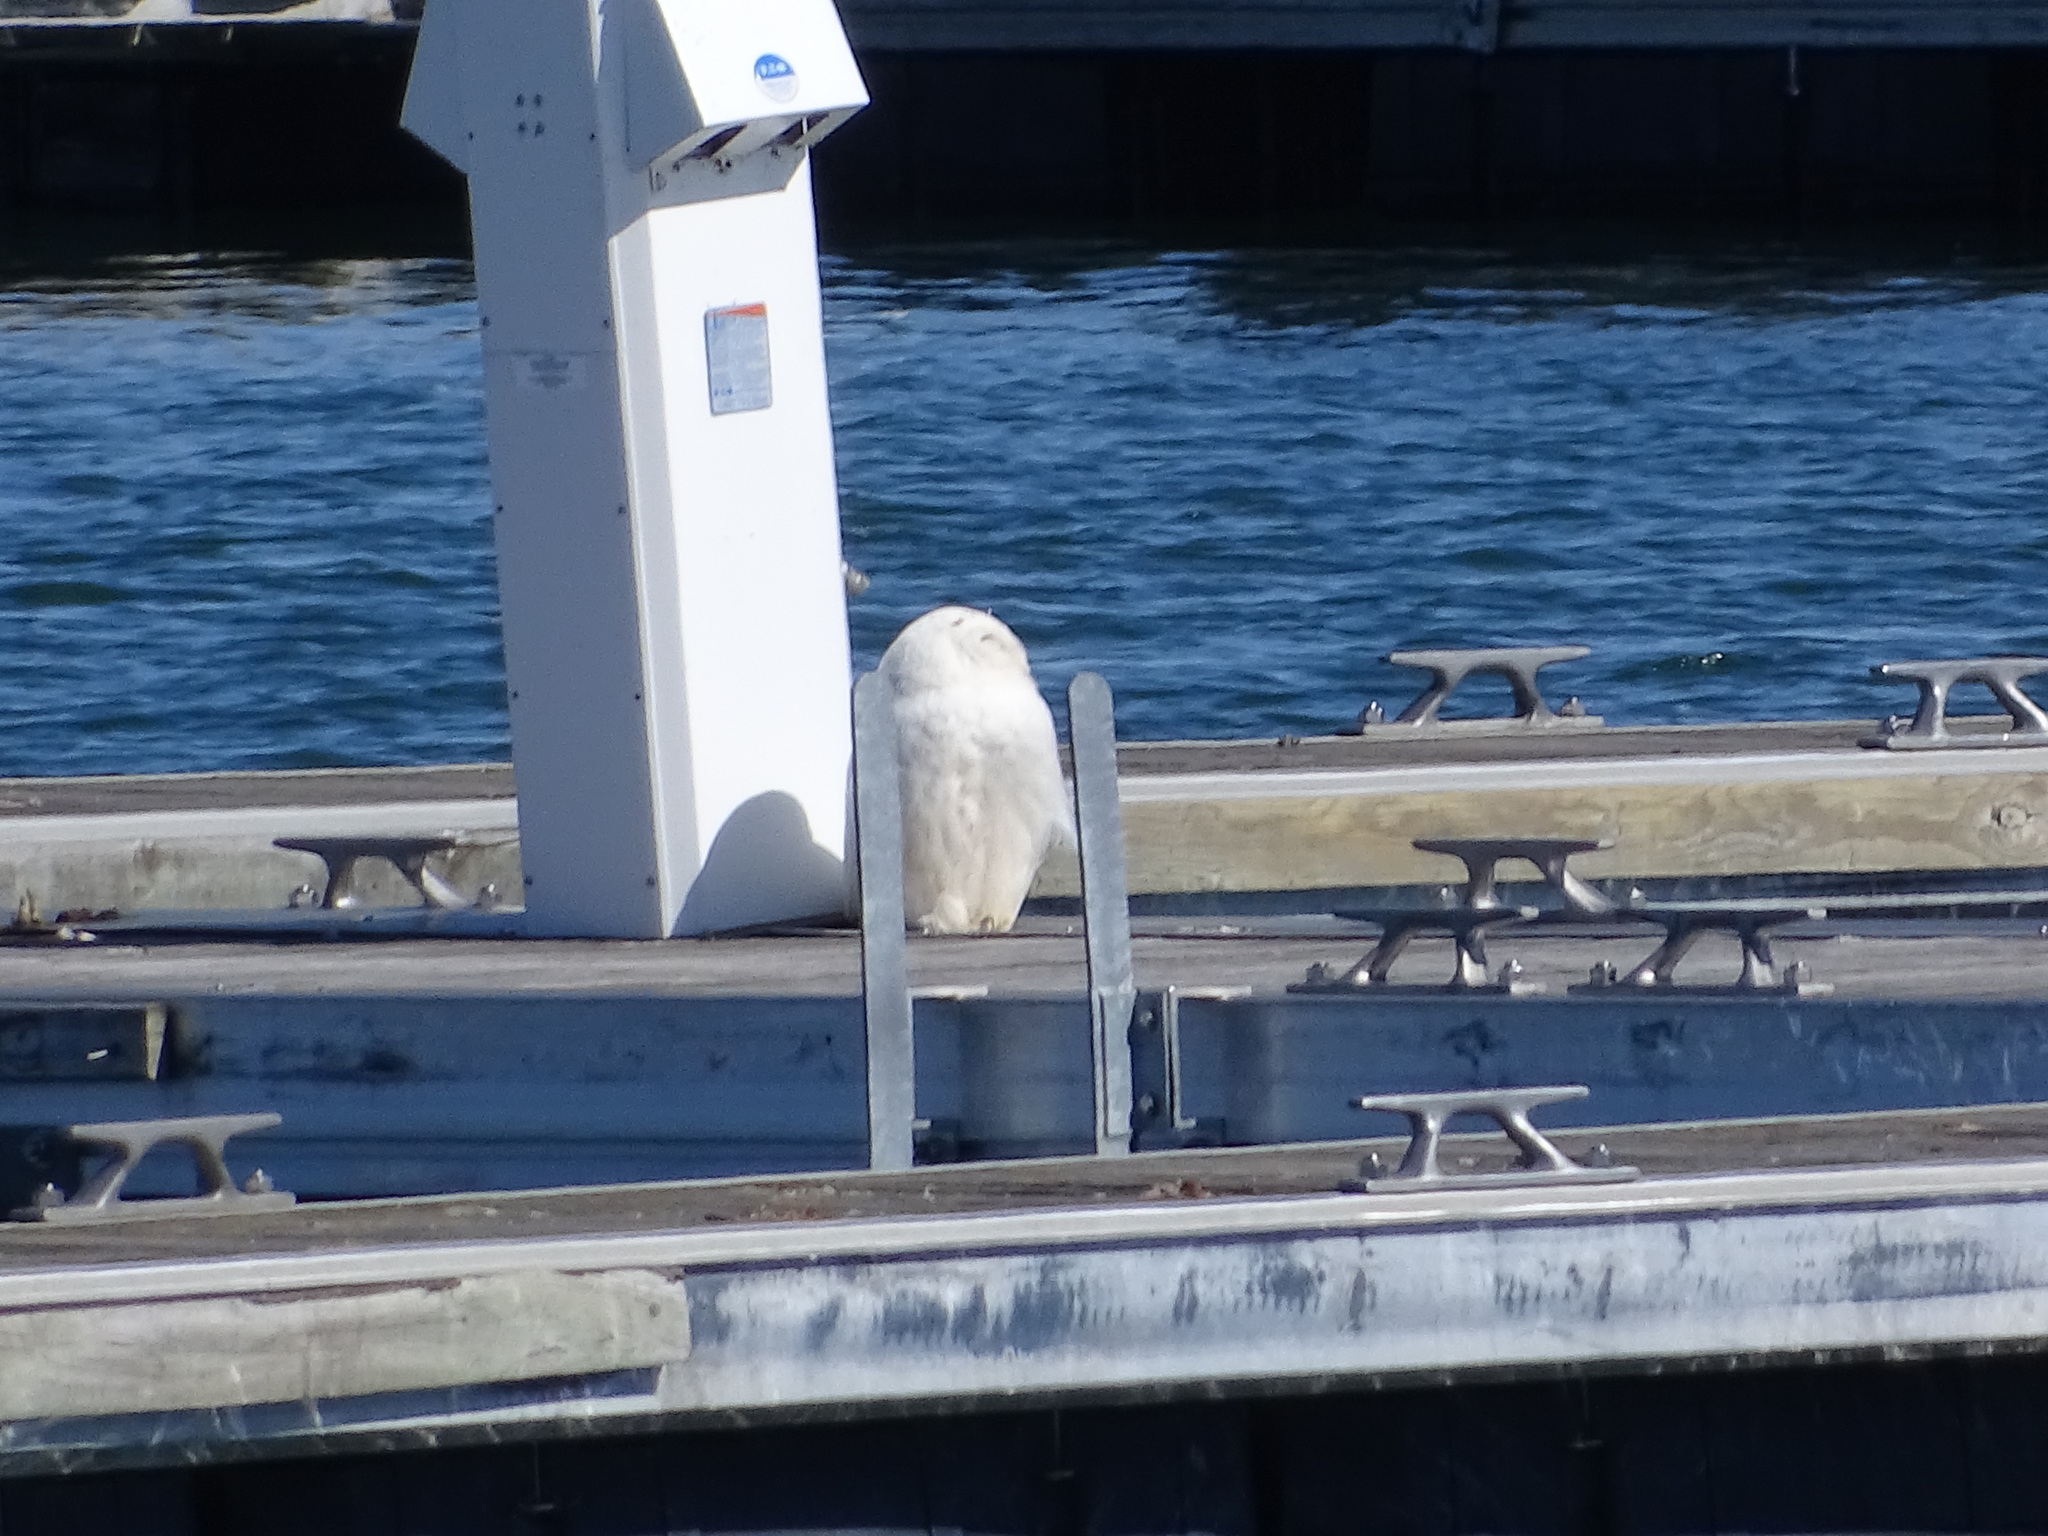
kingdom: Animalia
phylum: Chordata
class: Aves
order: Strigiformes
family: Strigidae
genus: Bubo
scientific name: Bubo scandiacus
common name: Snowy owl
